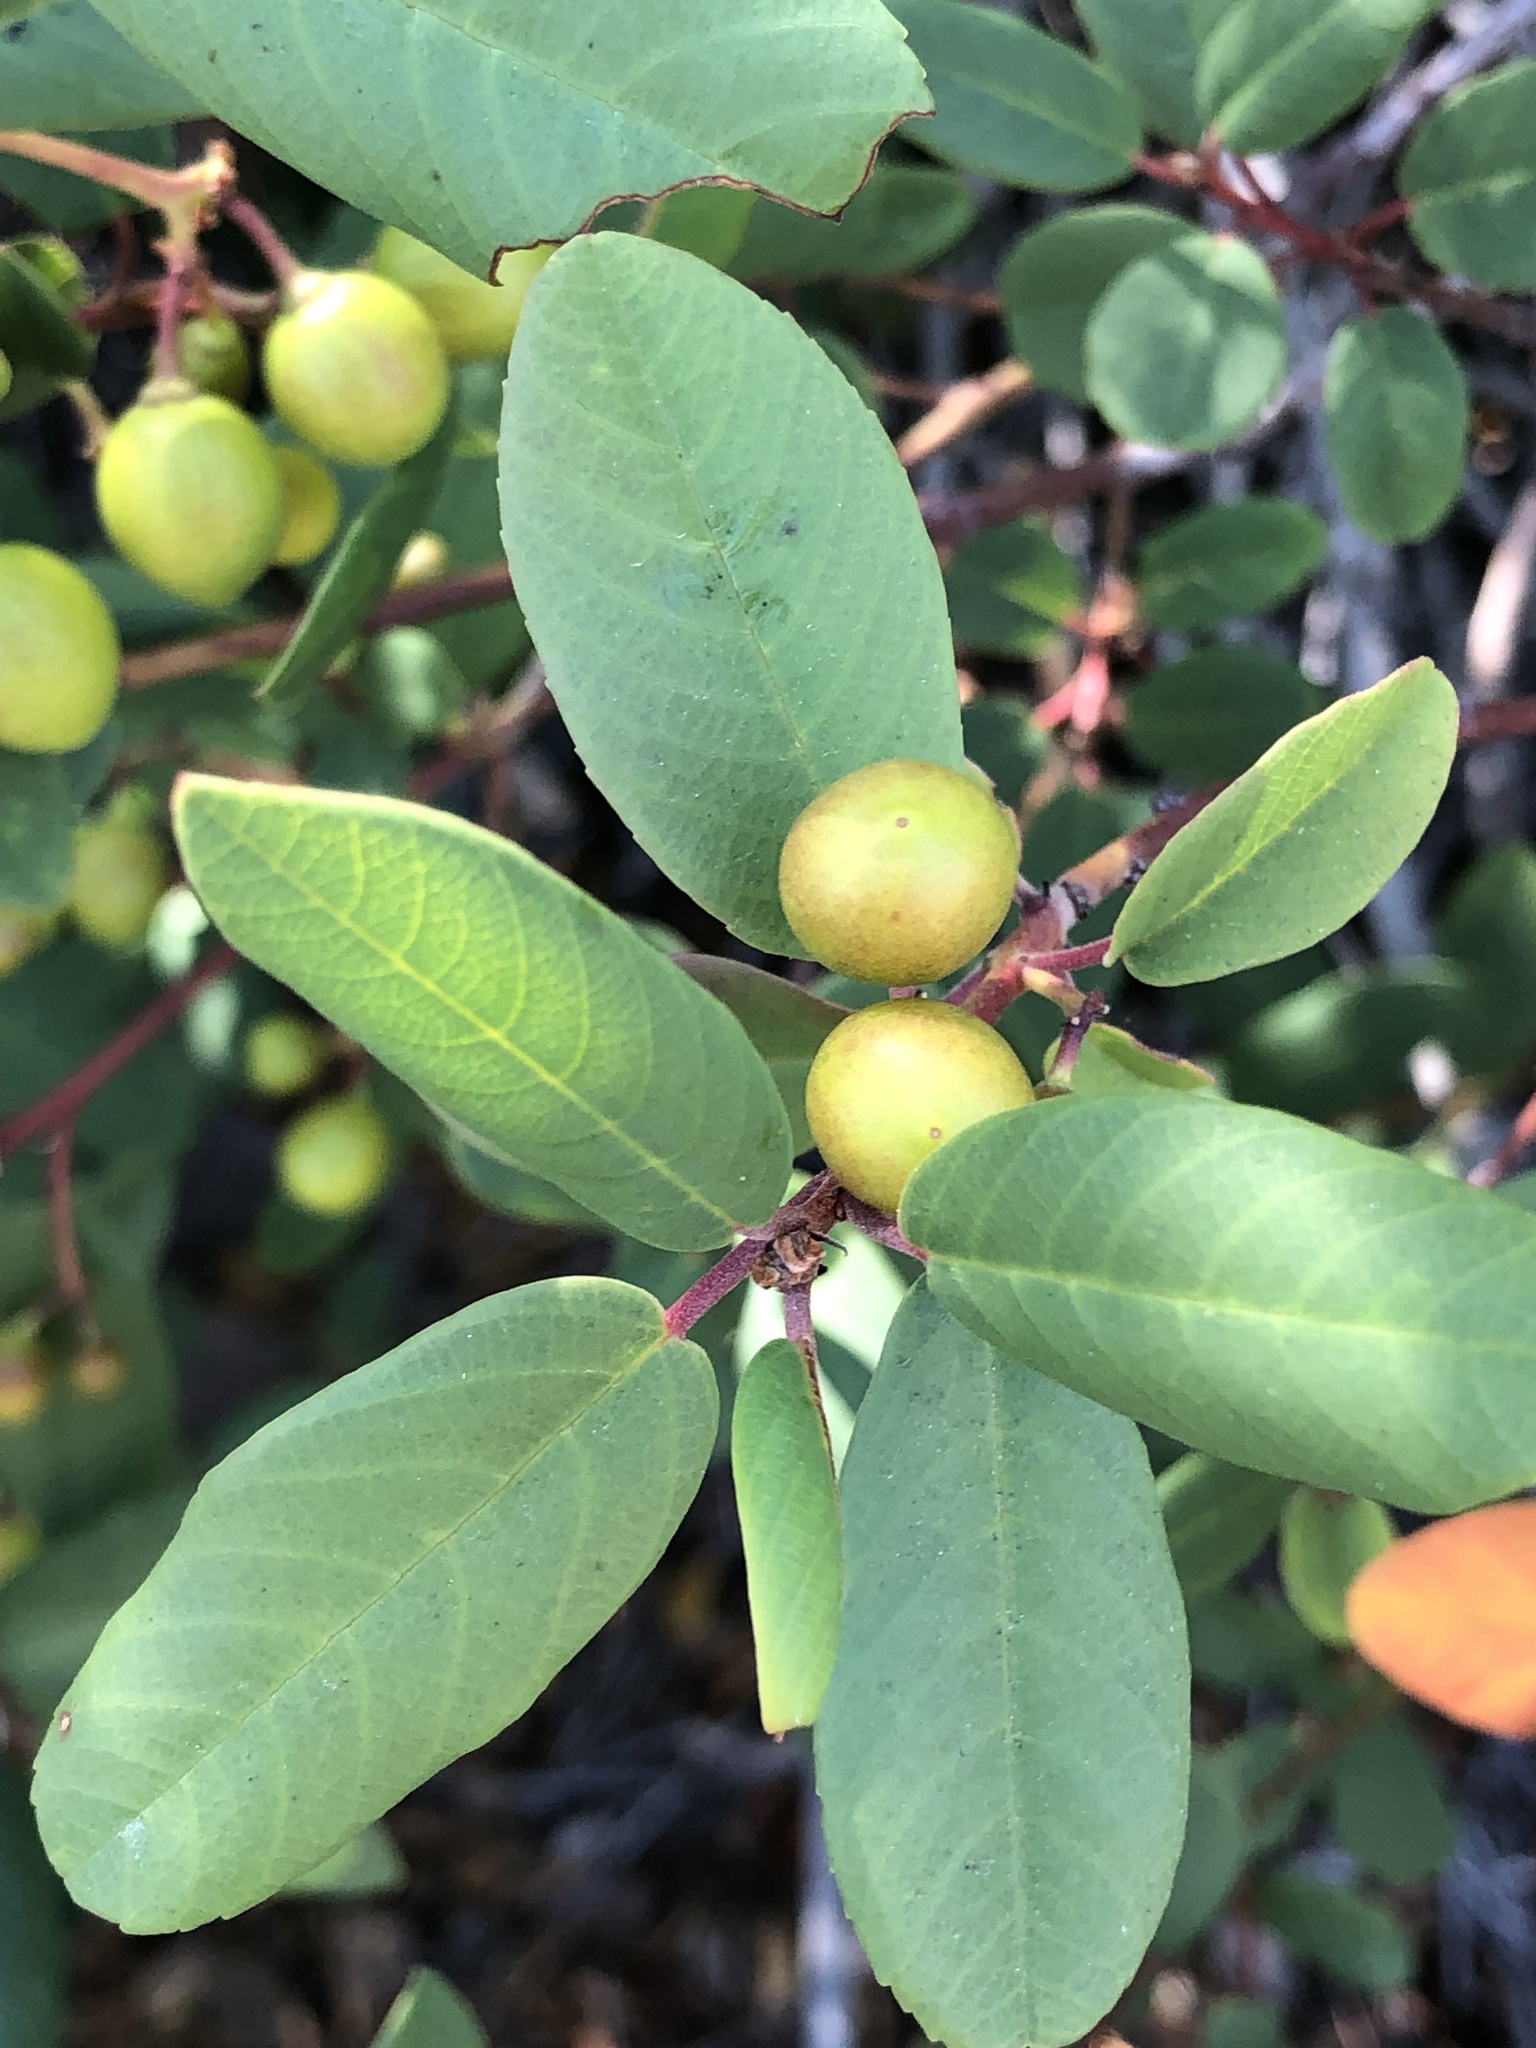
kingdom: Plantae
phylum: Tracheophyta
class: Magnoliopsida
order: Rosales
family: Rhamnaceae
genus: Frangula
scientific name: Frangula californica
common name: California buckthorn
